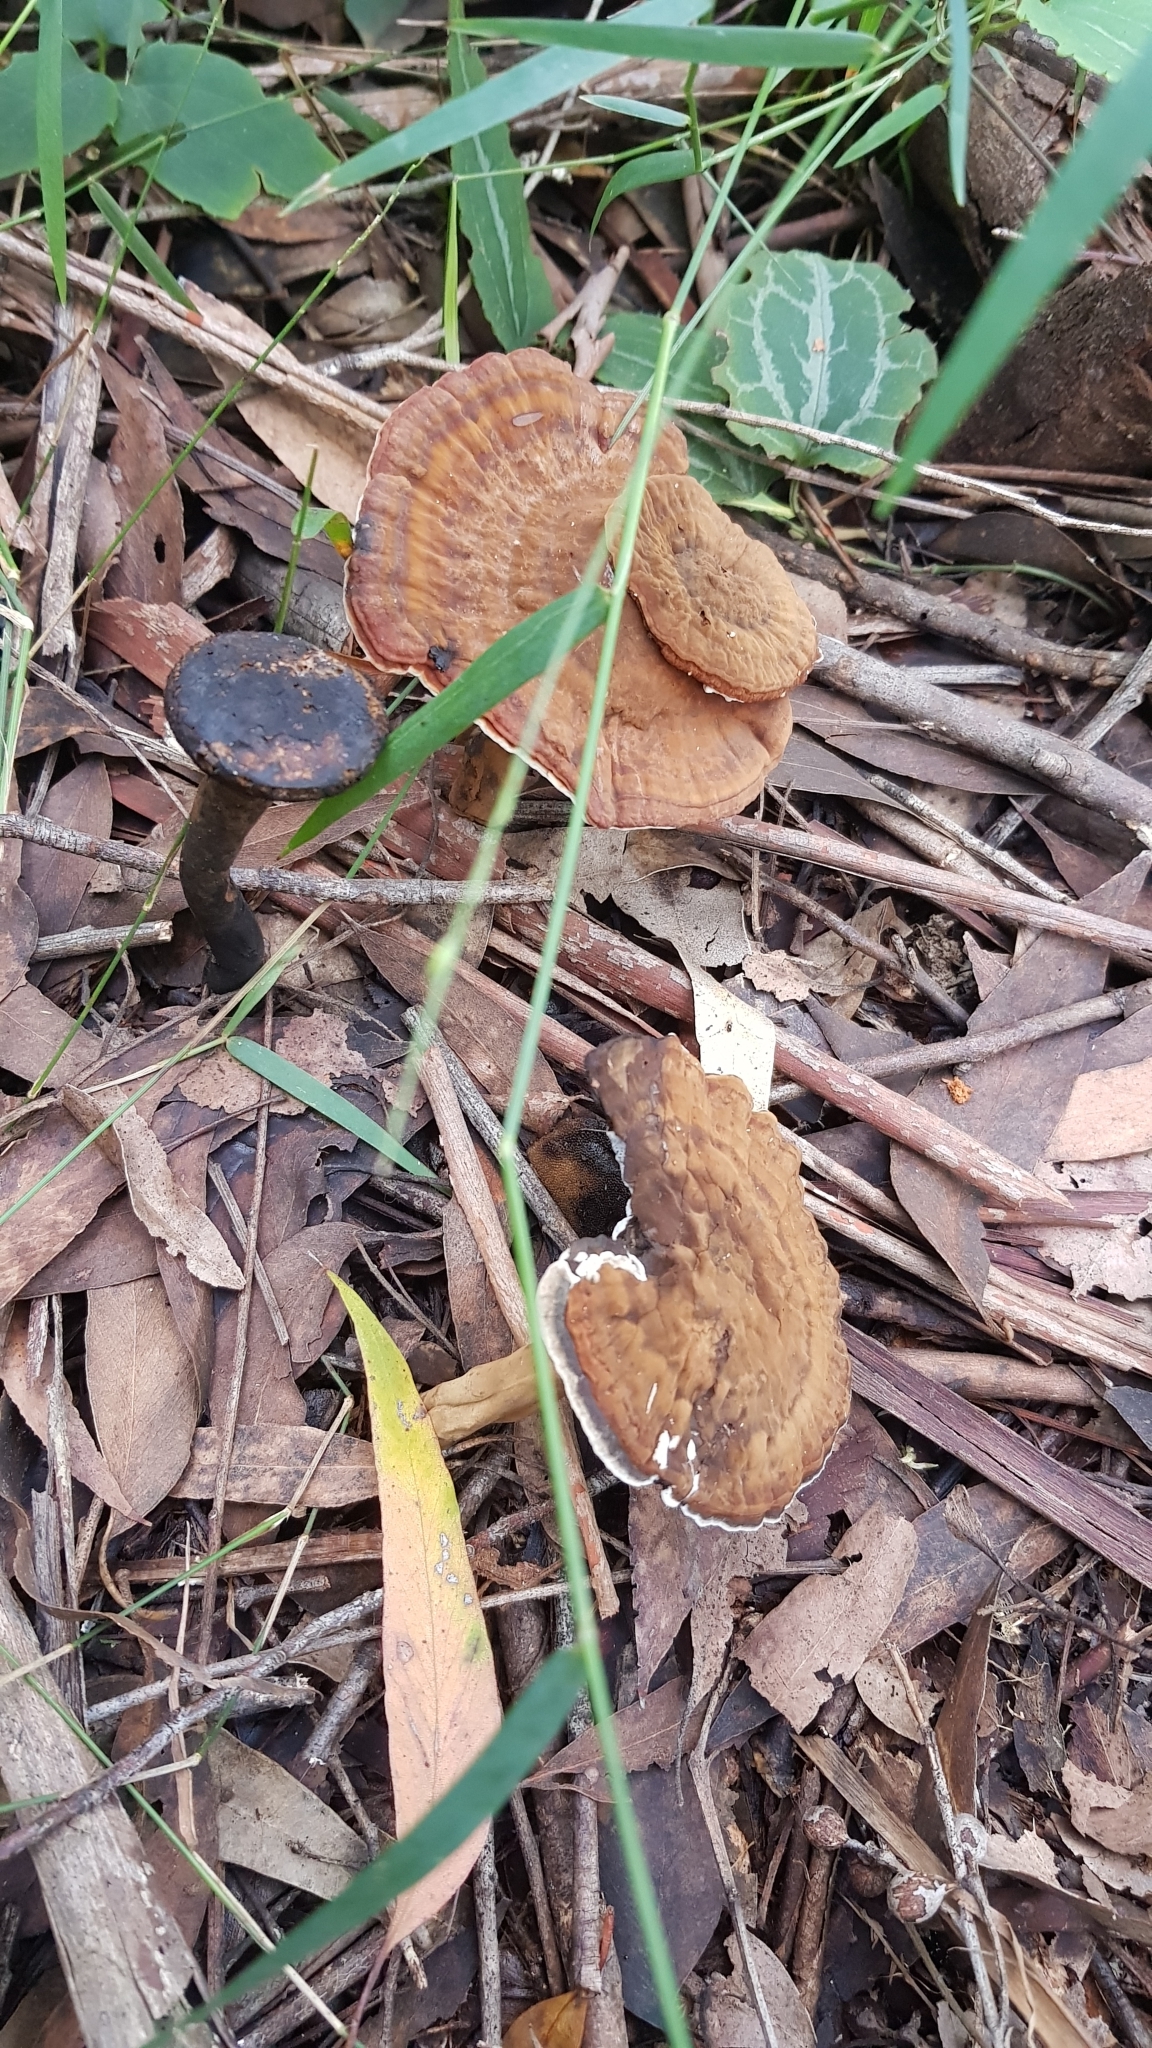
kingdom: Fungi
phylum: Basidiomycota
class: Agaricomycetes
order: Polyporales
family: Ganodermataceae
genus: Sanguinoderma
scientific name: Sanguinoderma rude
